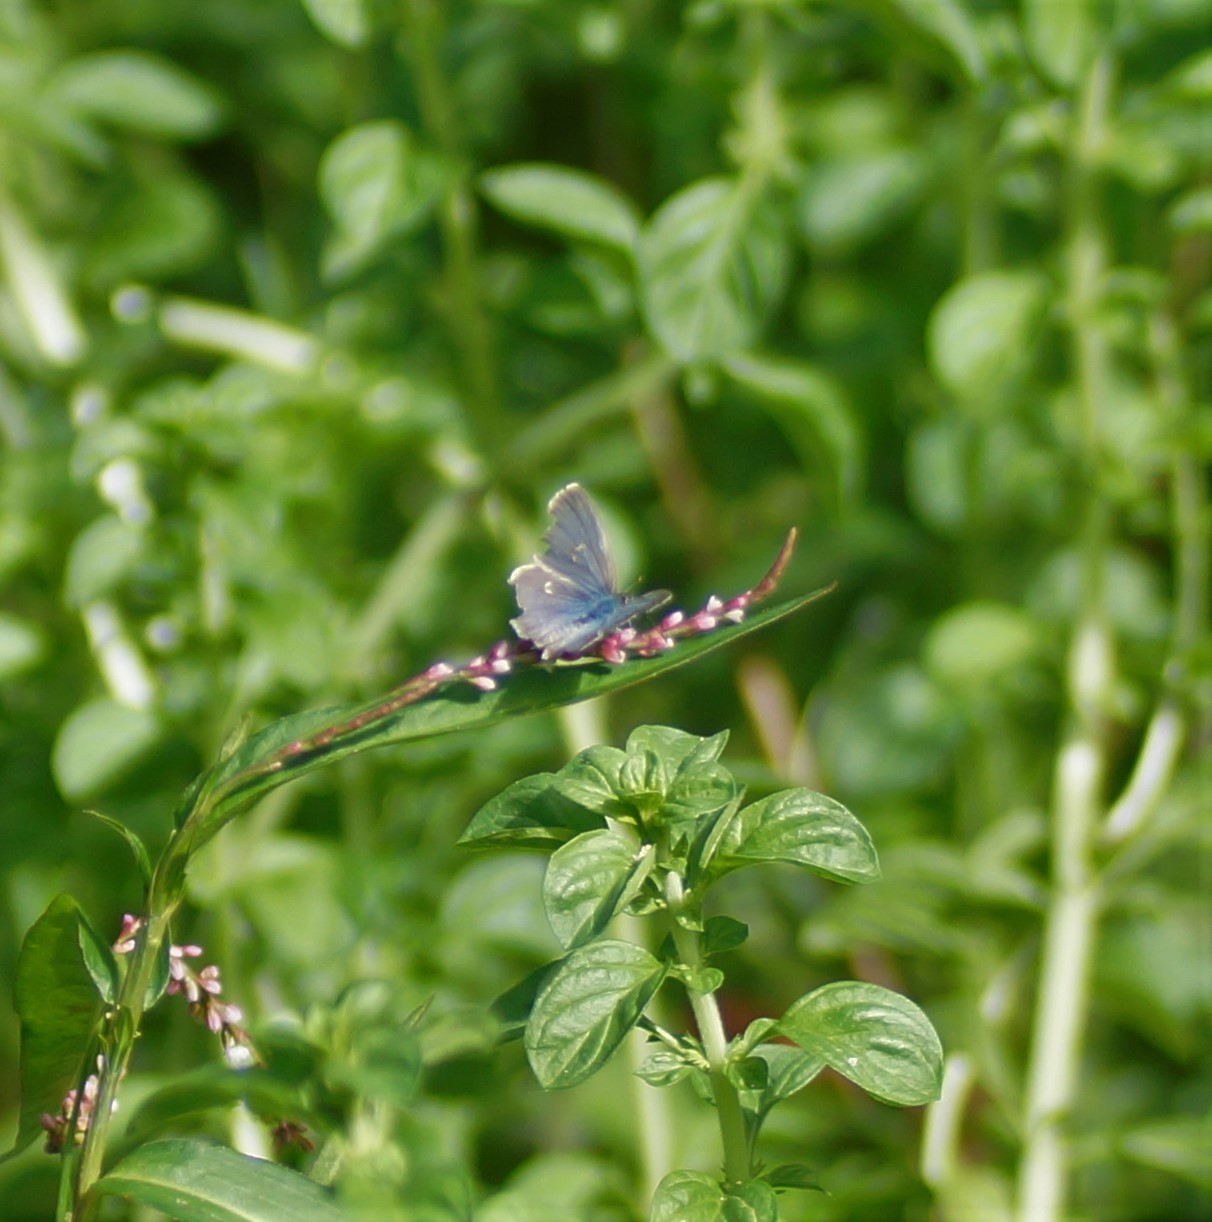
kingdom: Animalia
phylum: Arthropoda
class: Insecta
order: Lepidoptera
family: Lycaenidae
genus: Zizina
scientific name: Zizina otis
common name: Lesser grass blue
